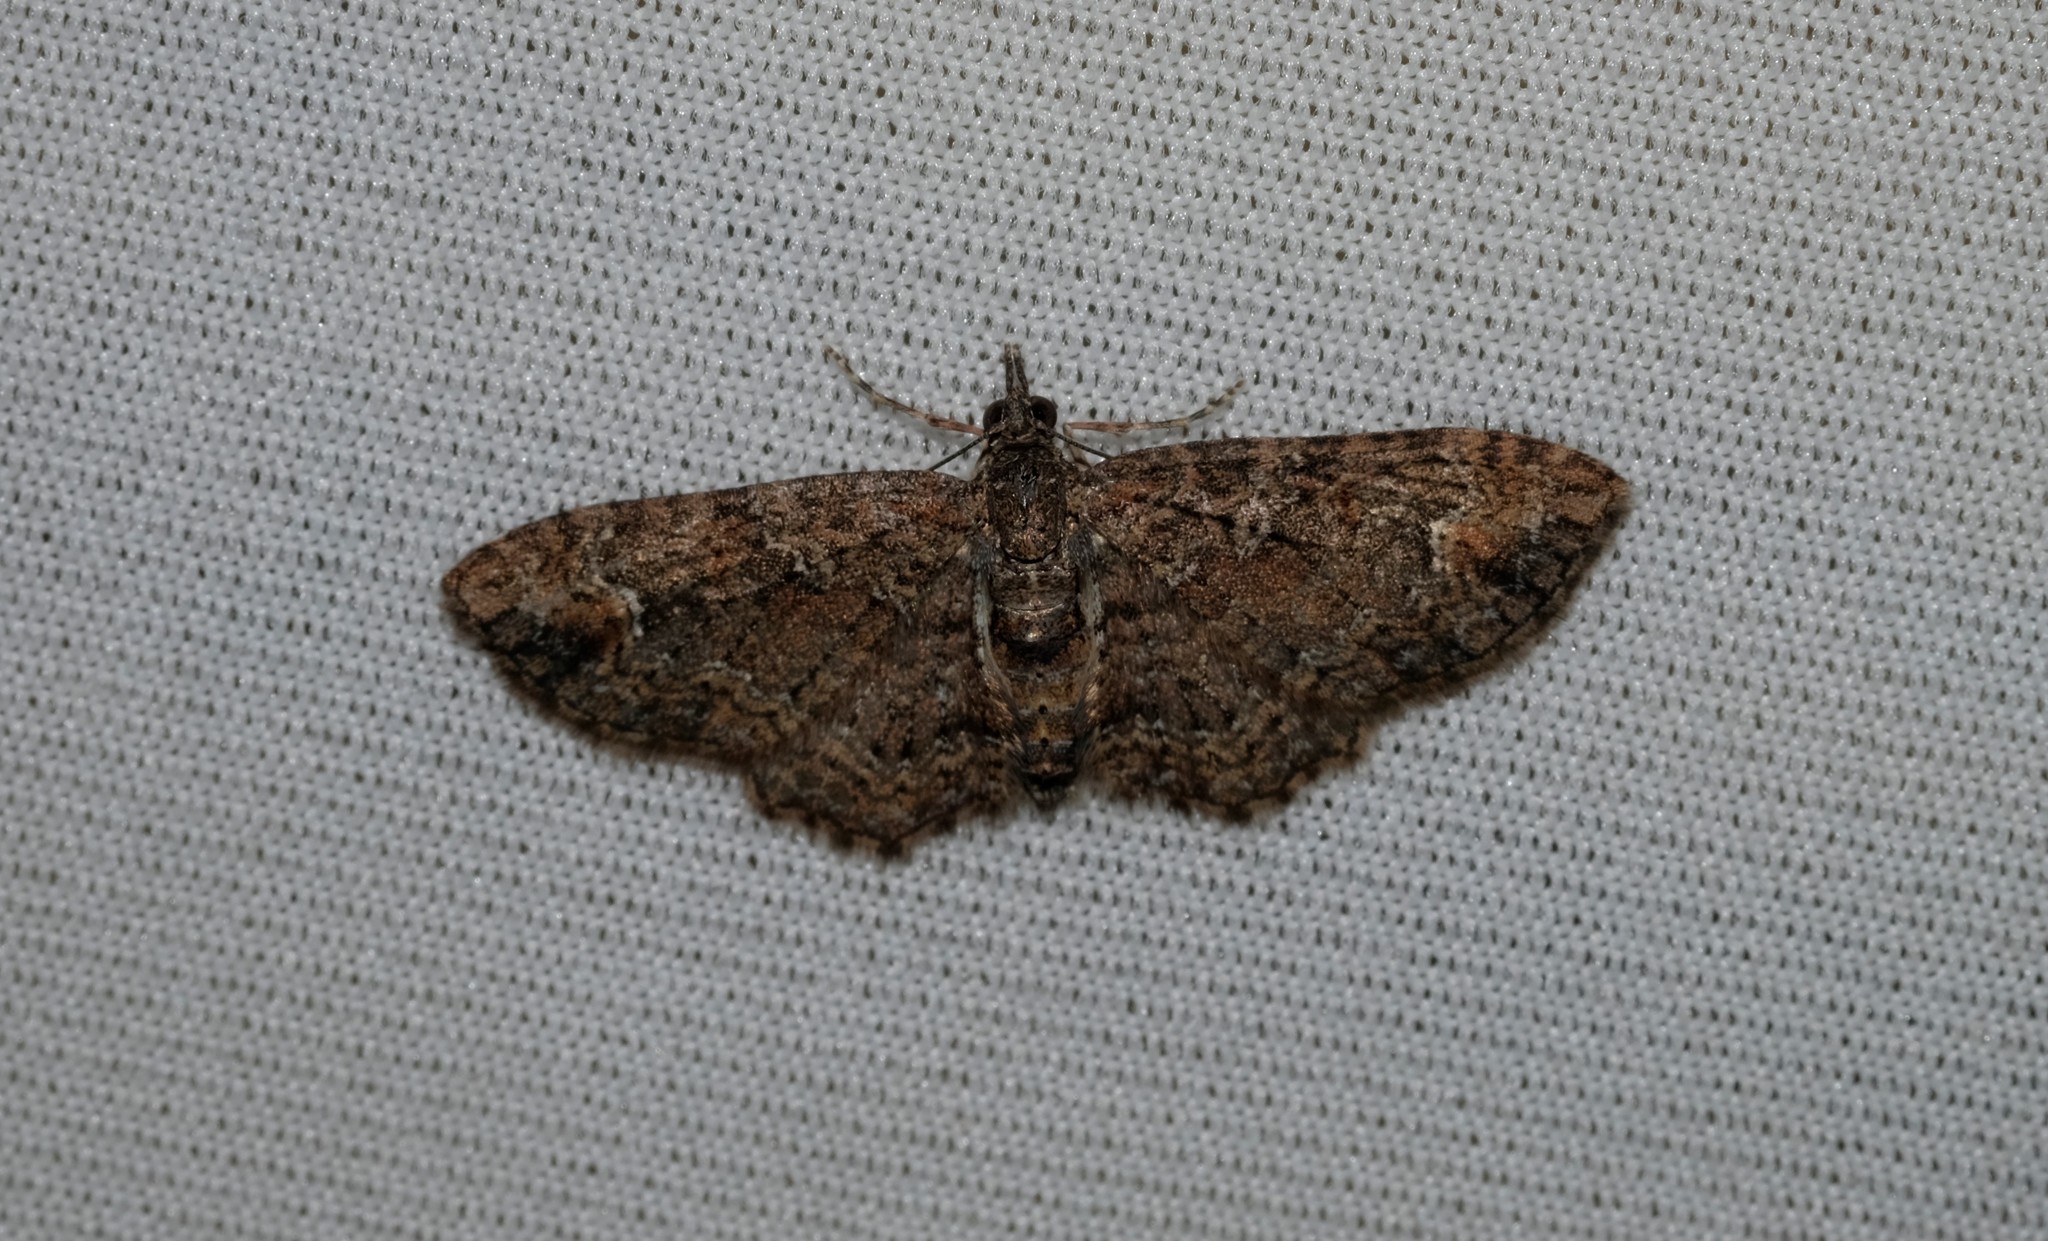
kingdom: Animalia
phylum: Arthropoda
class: Insecta
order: Lepidoptera
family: Geometridae
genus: Pasiphilodes
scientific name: Pasiphilodes testulata
